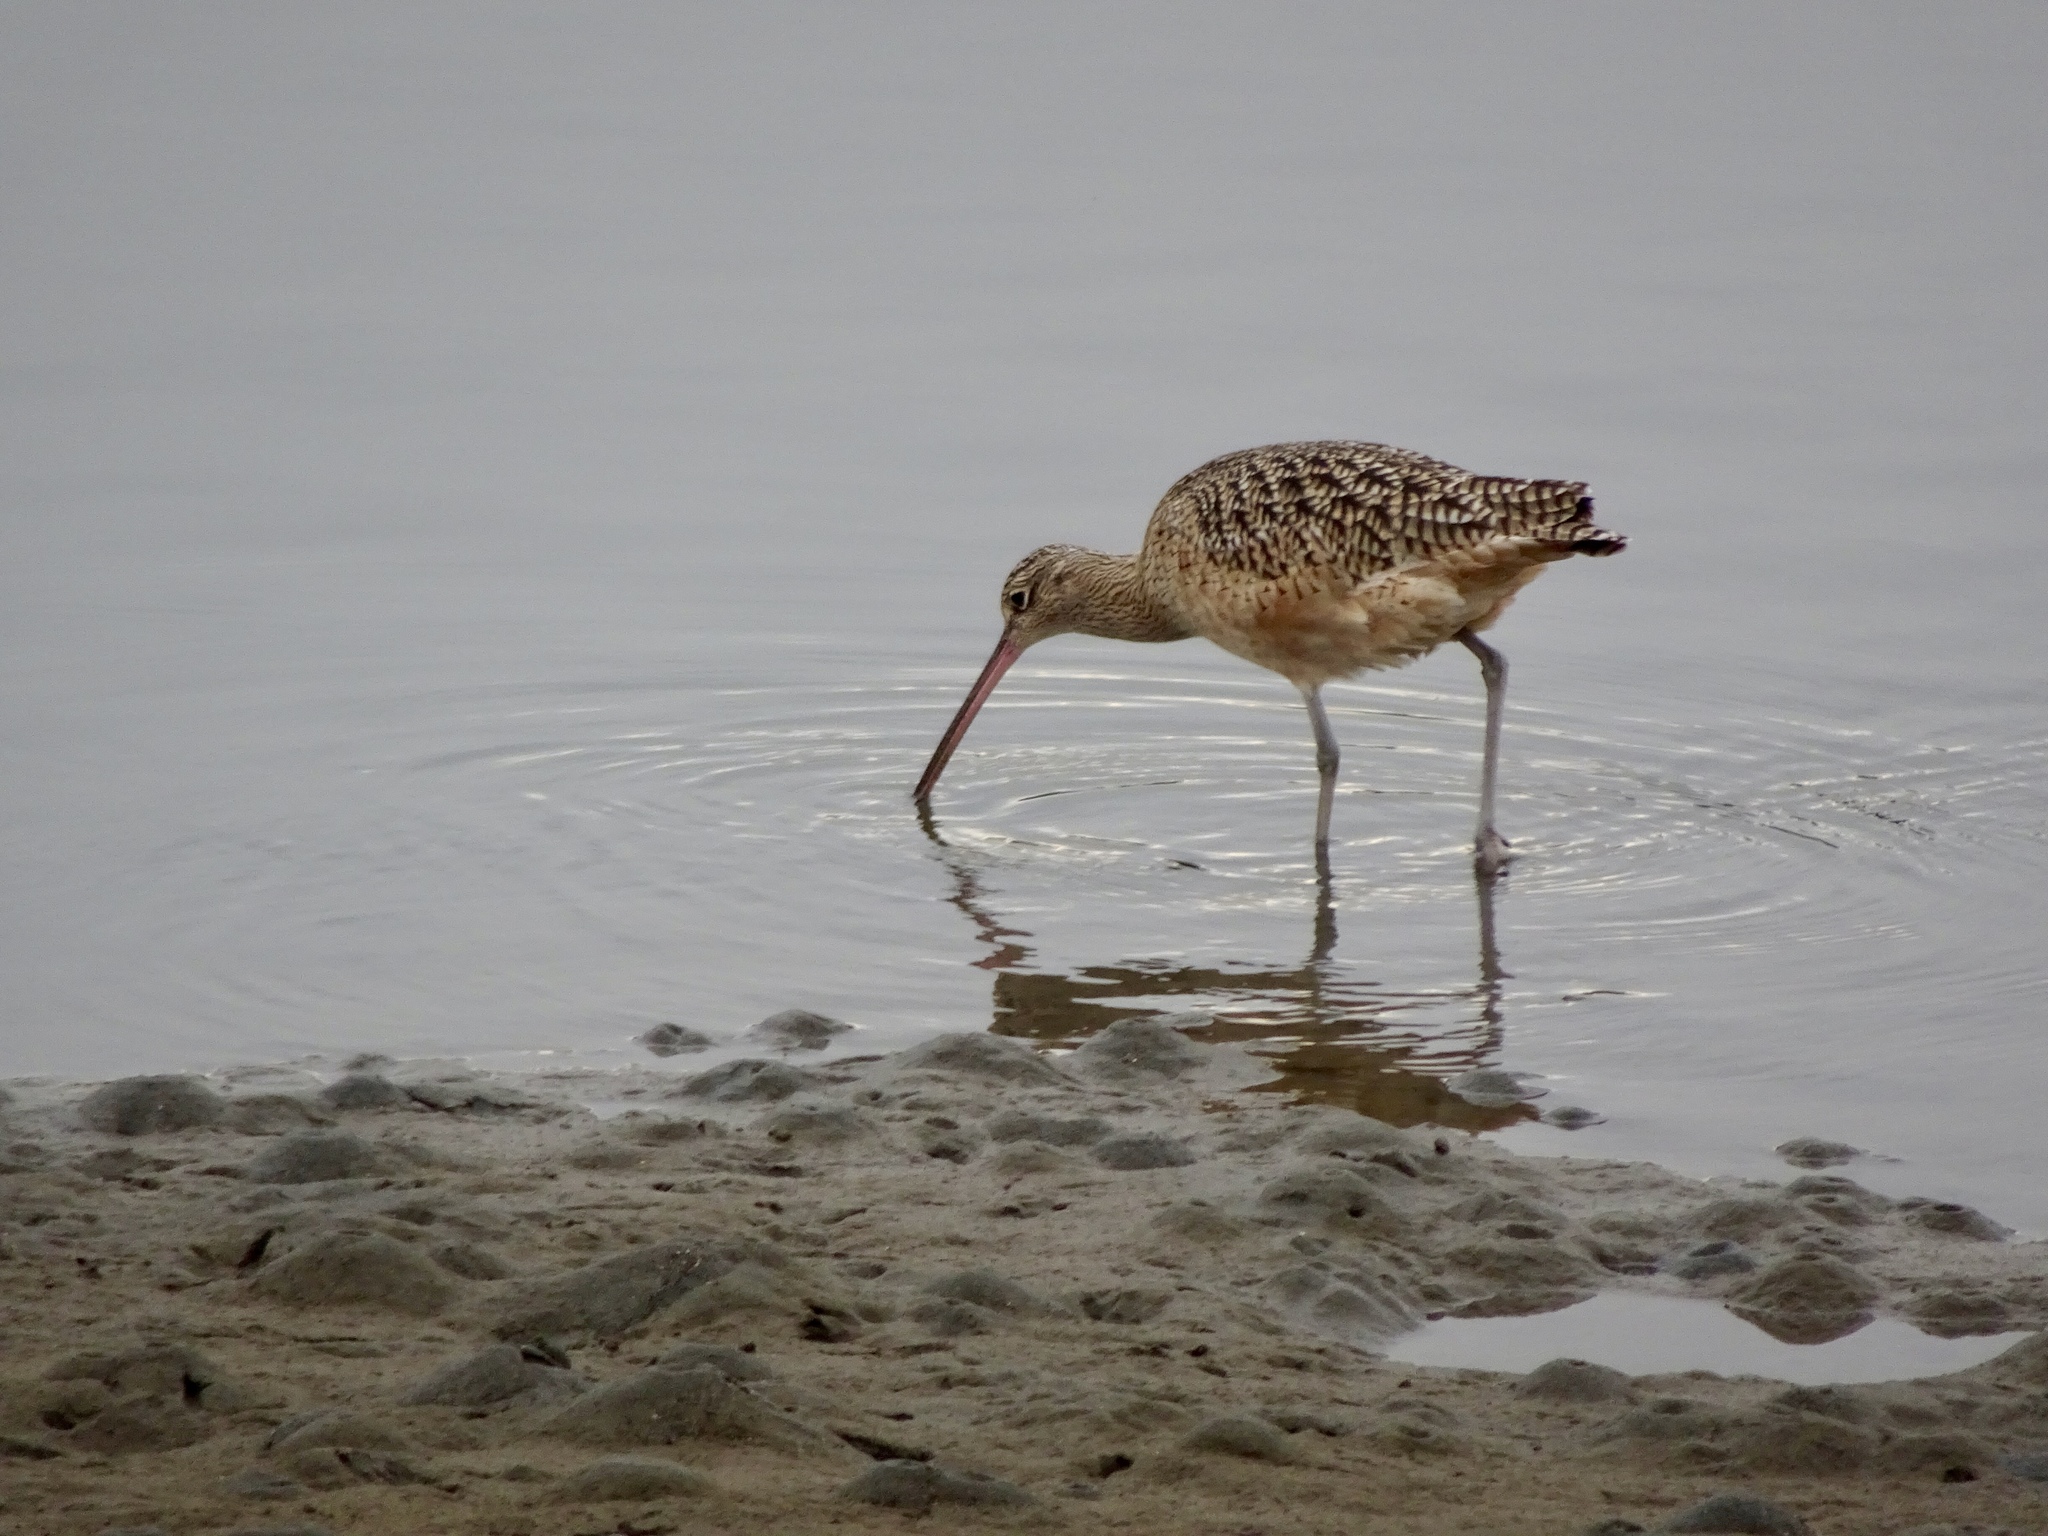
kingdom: Animalia
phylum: Chordata
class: Aves
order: Charadriiformes
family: Scolopacidae
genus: Numenius
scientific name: Numenius americanus
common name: Long-billed curlew
